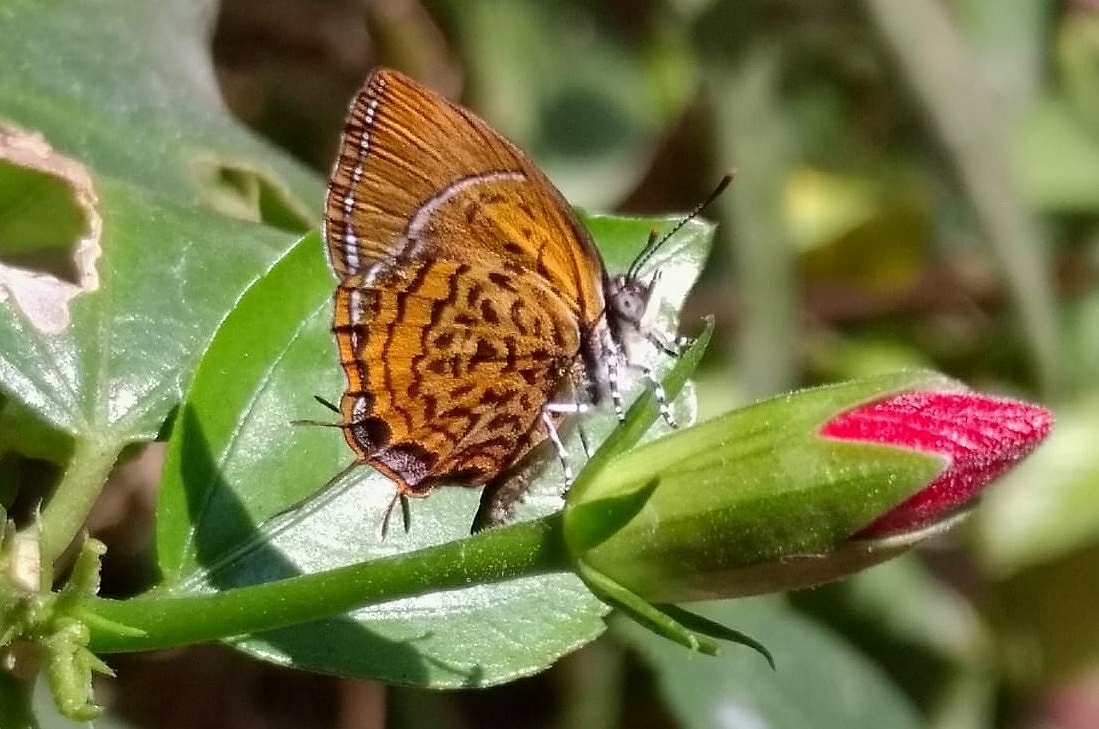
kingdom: Animalia
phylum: Arthropoda
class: Insecta
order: Lepidoptera
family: Lycaenidae
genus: Rathinda
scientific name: Rathinda amor
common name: Monkey puzzle
